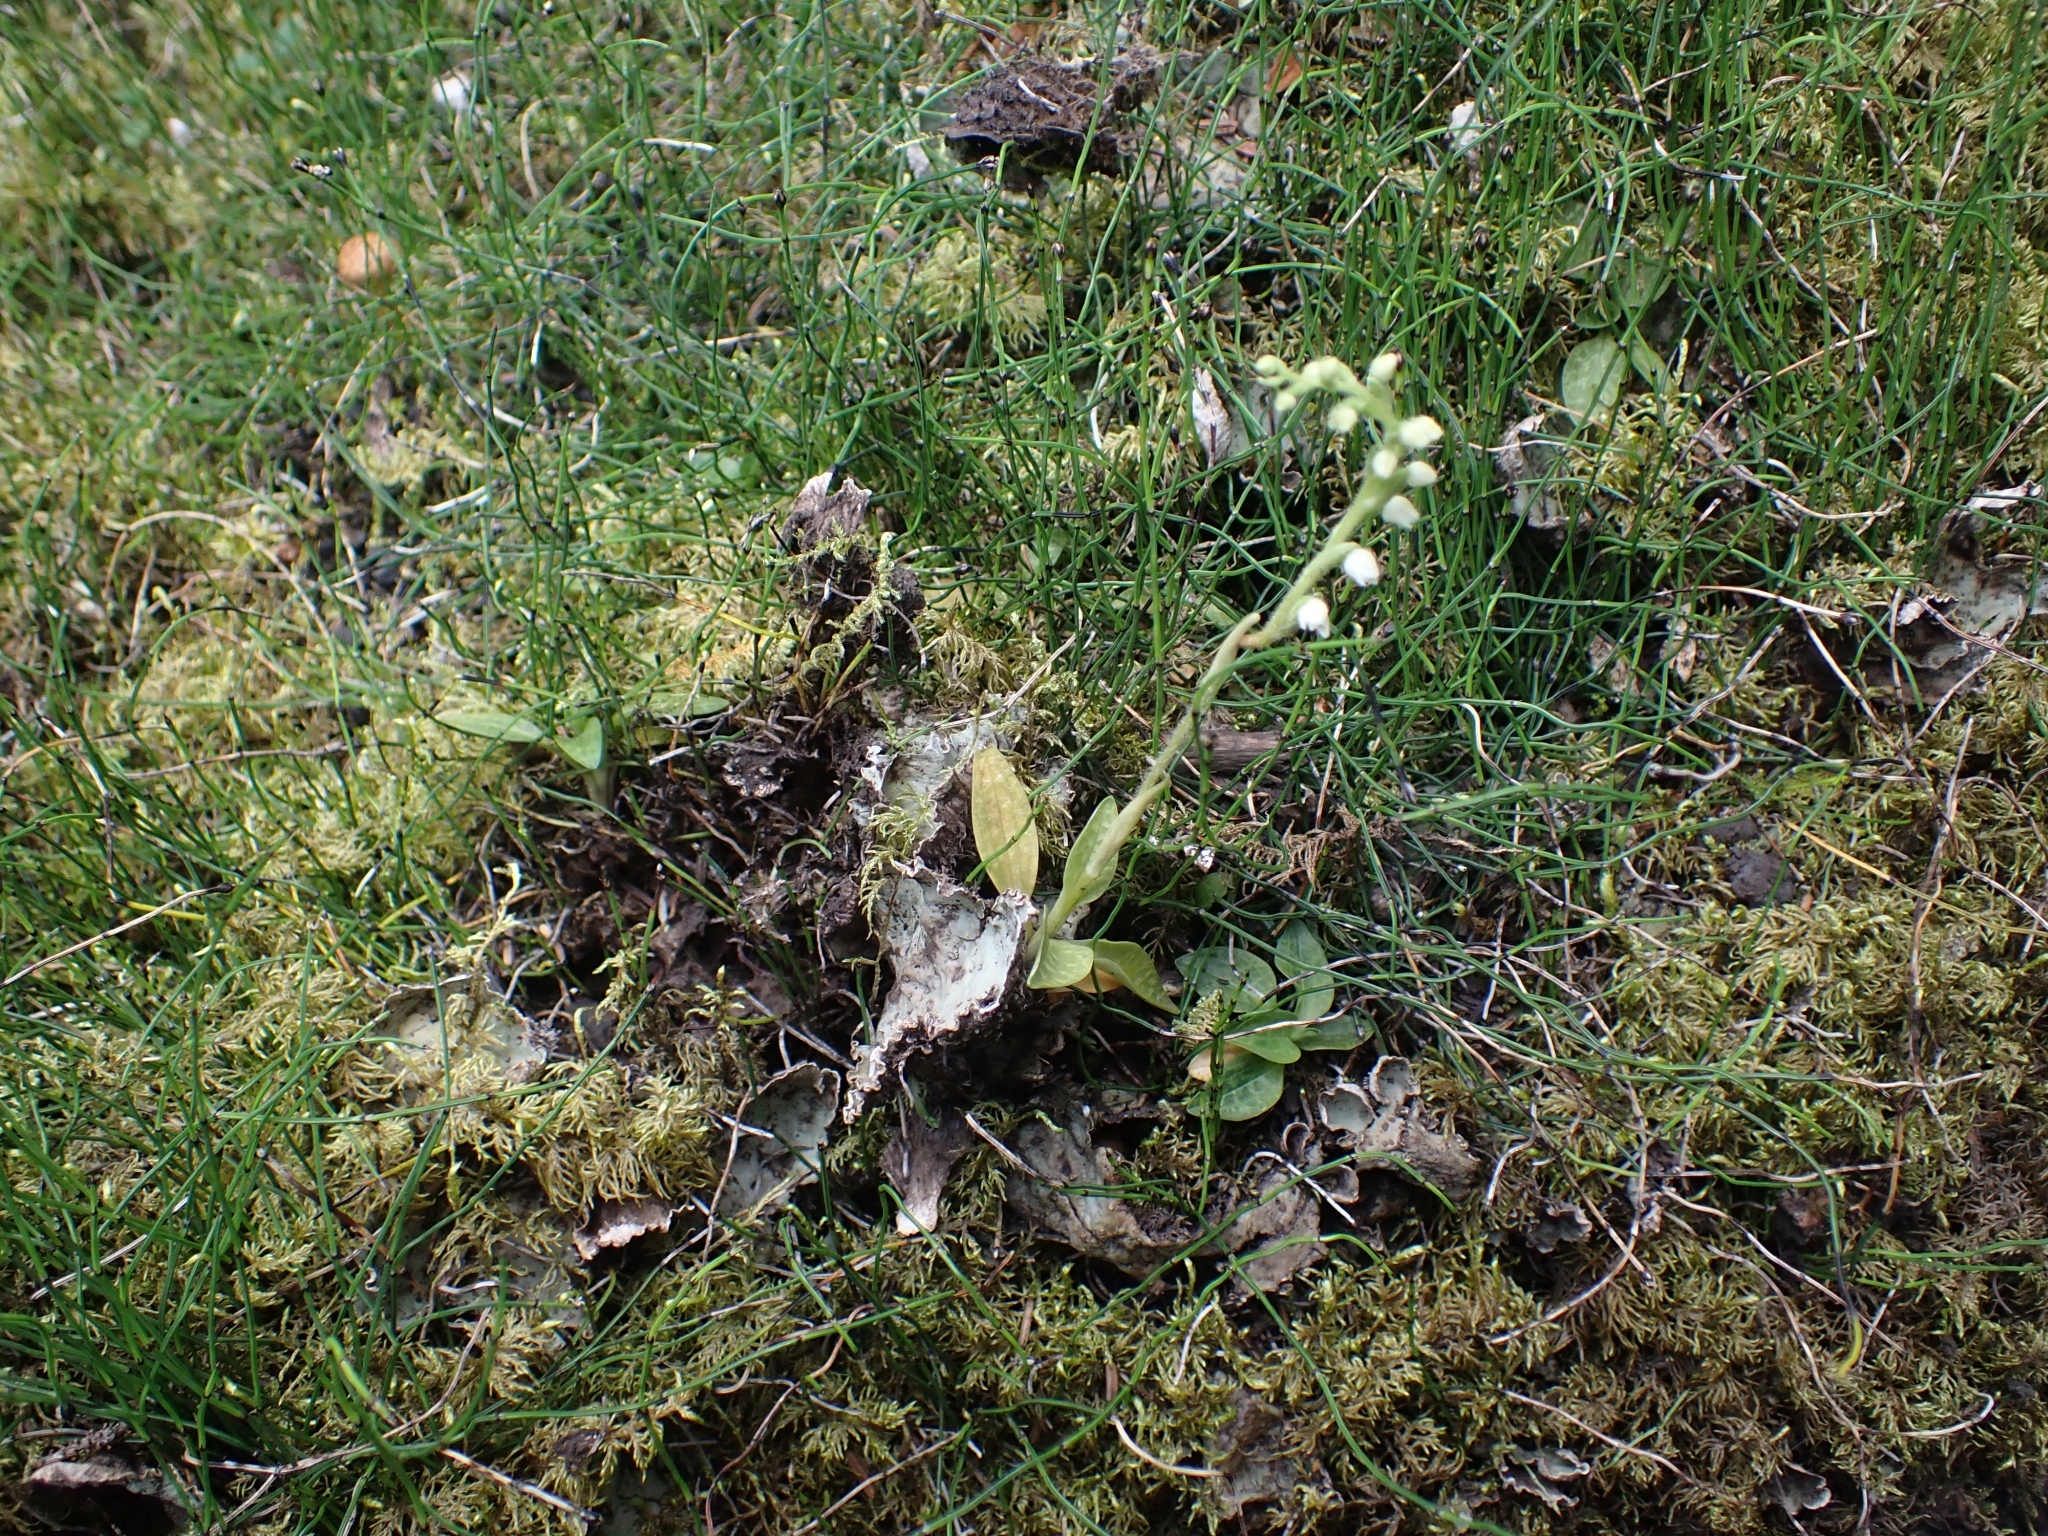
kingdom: Plantae
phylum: Tracheophyta
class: Liliopsida
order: Asparagales
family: Orchidaceae
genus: Goodyera
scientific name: Goodyera repens
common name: Creeping lady's-tresses
